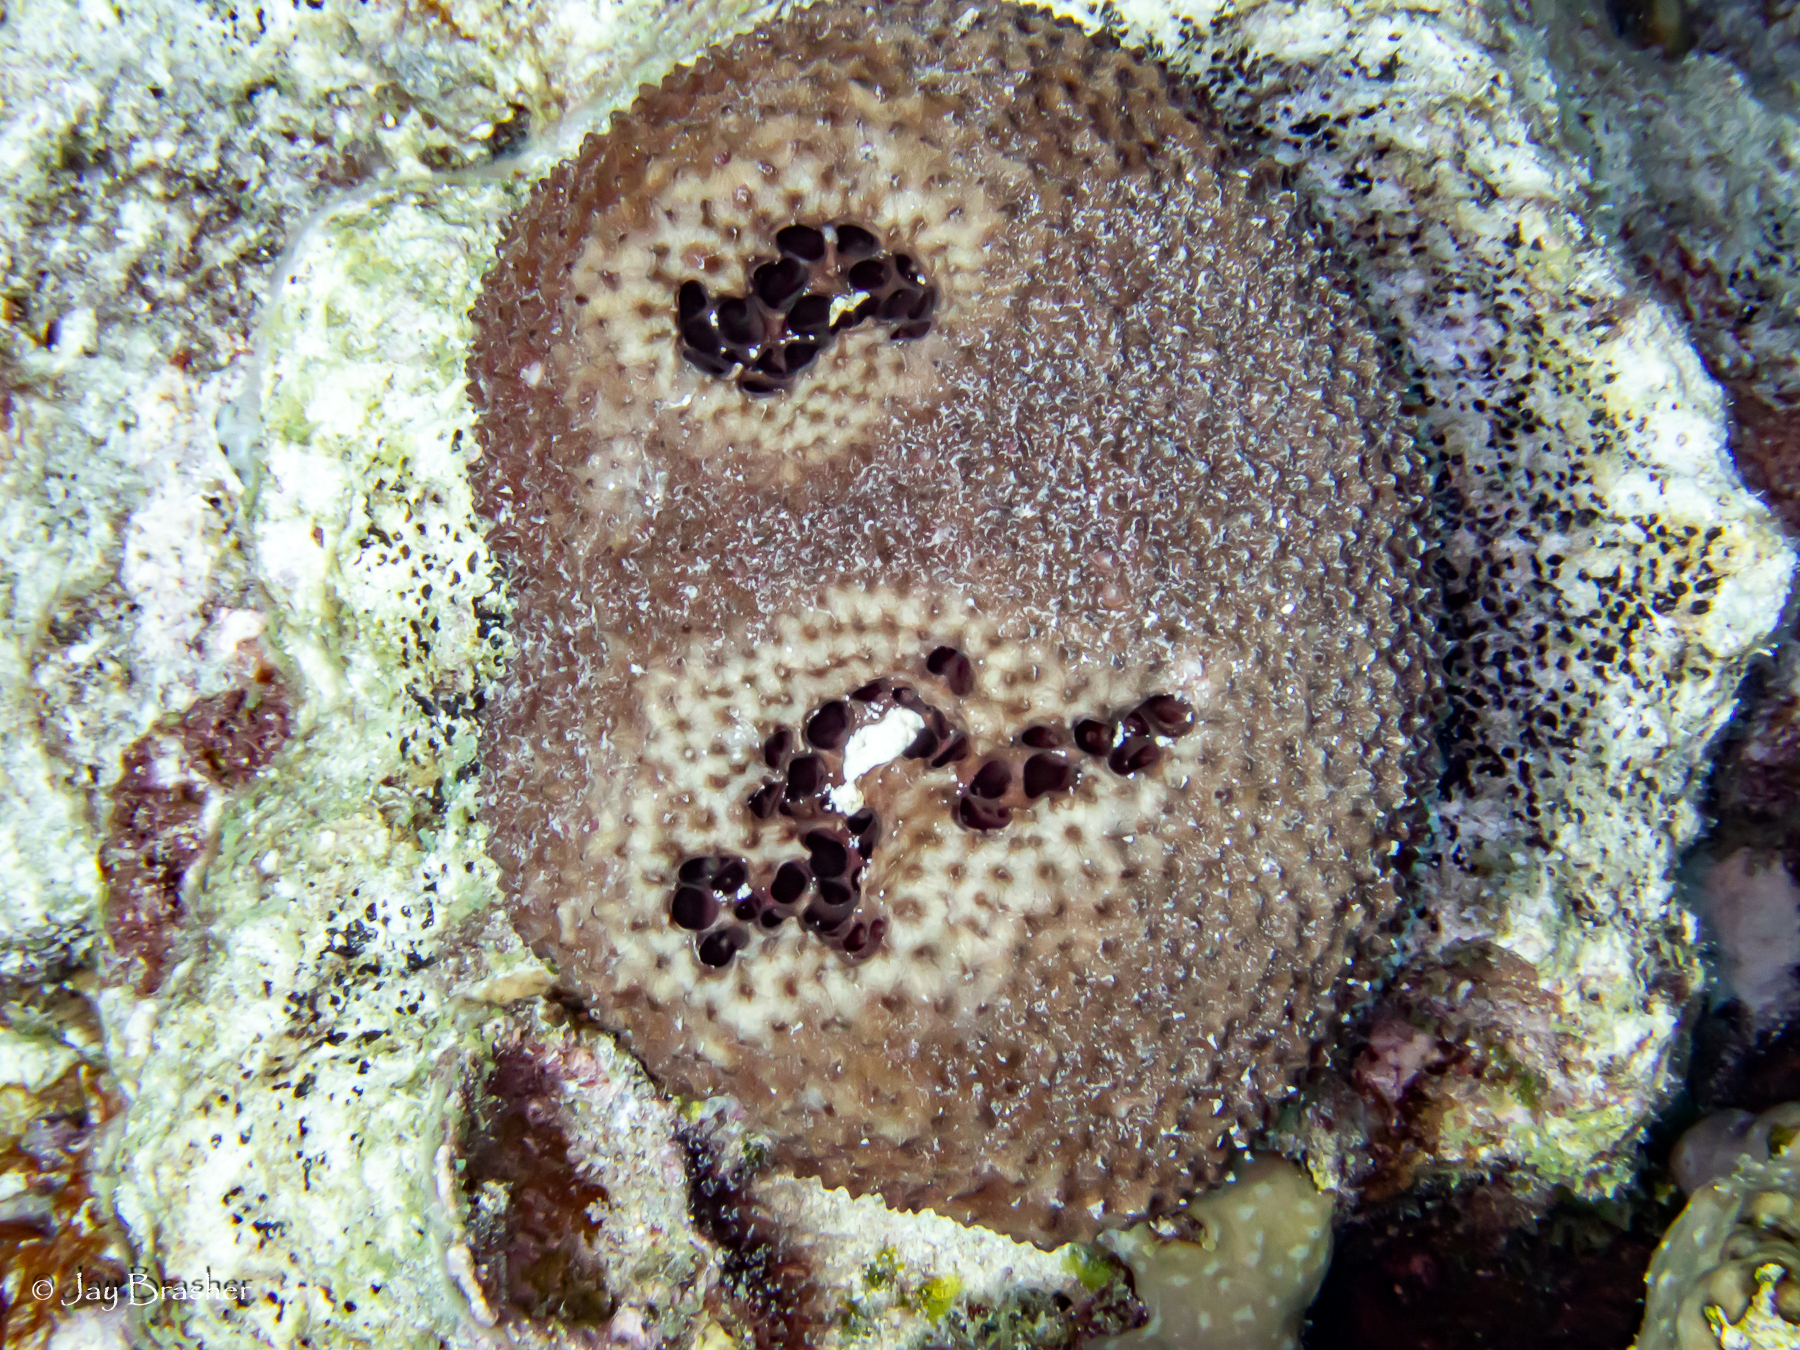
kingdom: Animalia
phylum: Porifera
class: Demospongiae
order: Dictyoceratida
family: Irciniidae
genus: Ircinia
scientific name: Ircinia strobilina
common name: Cake sponge
